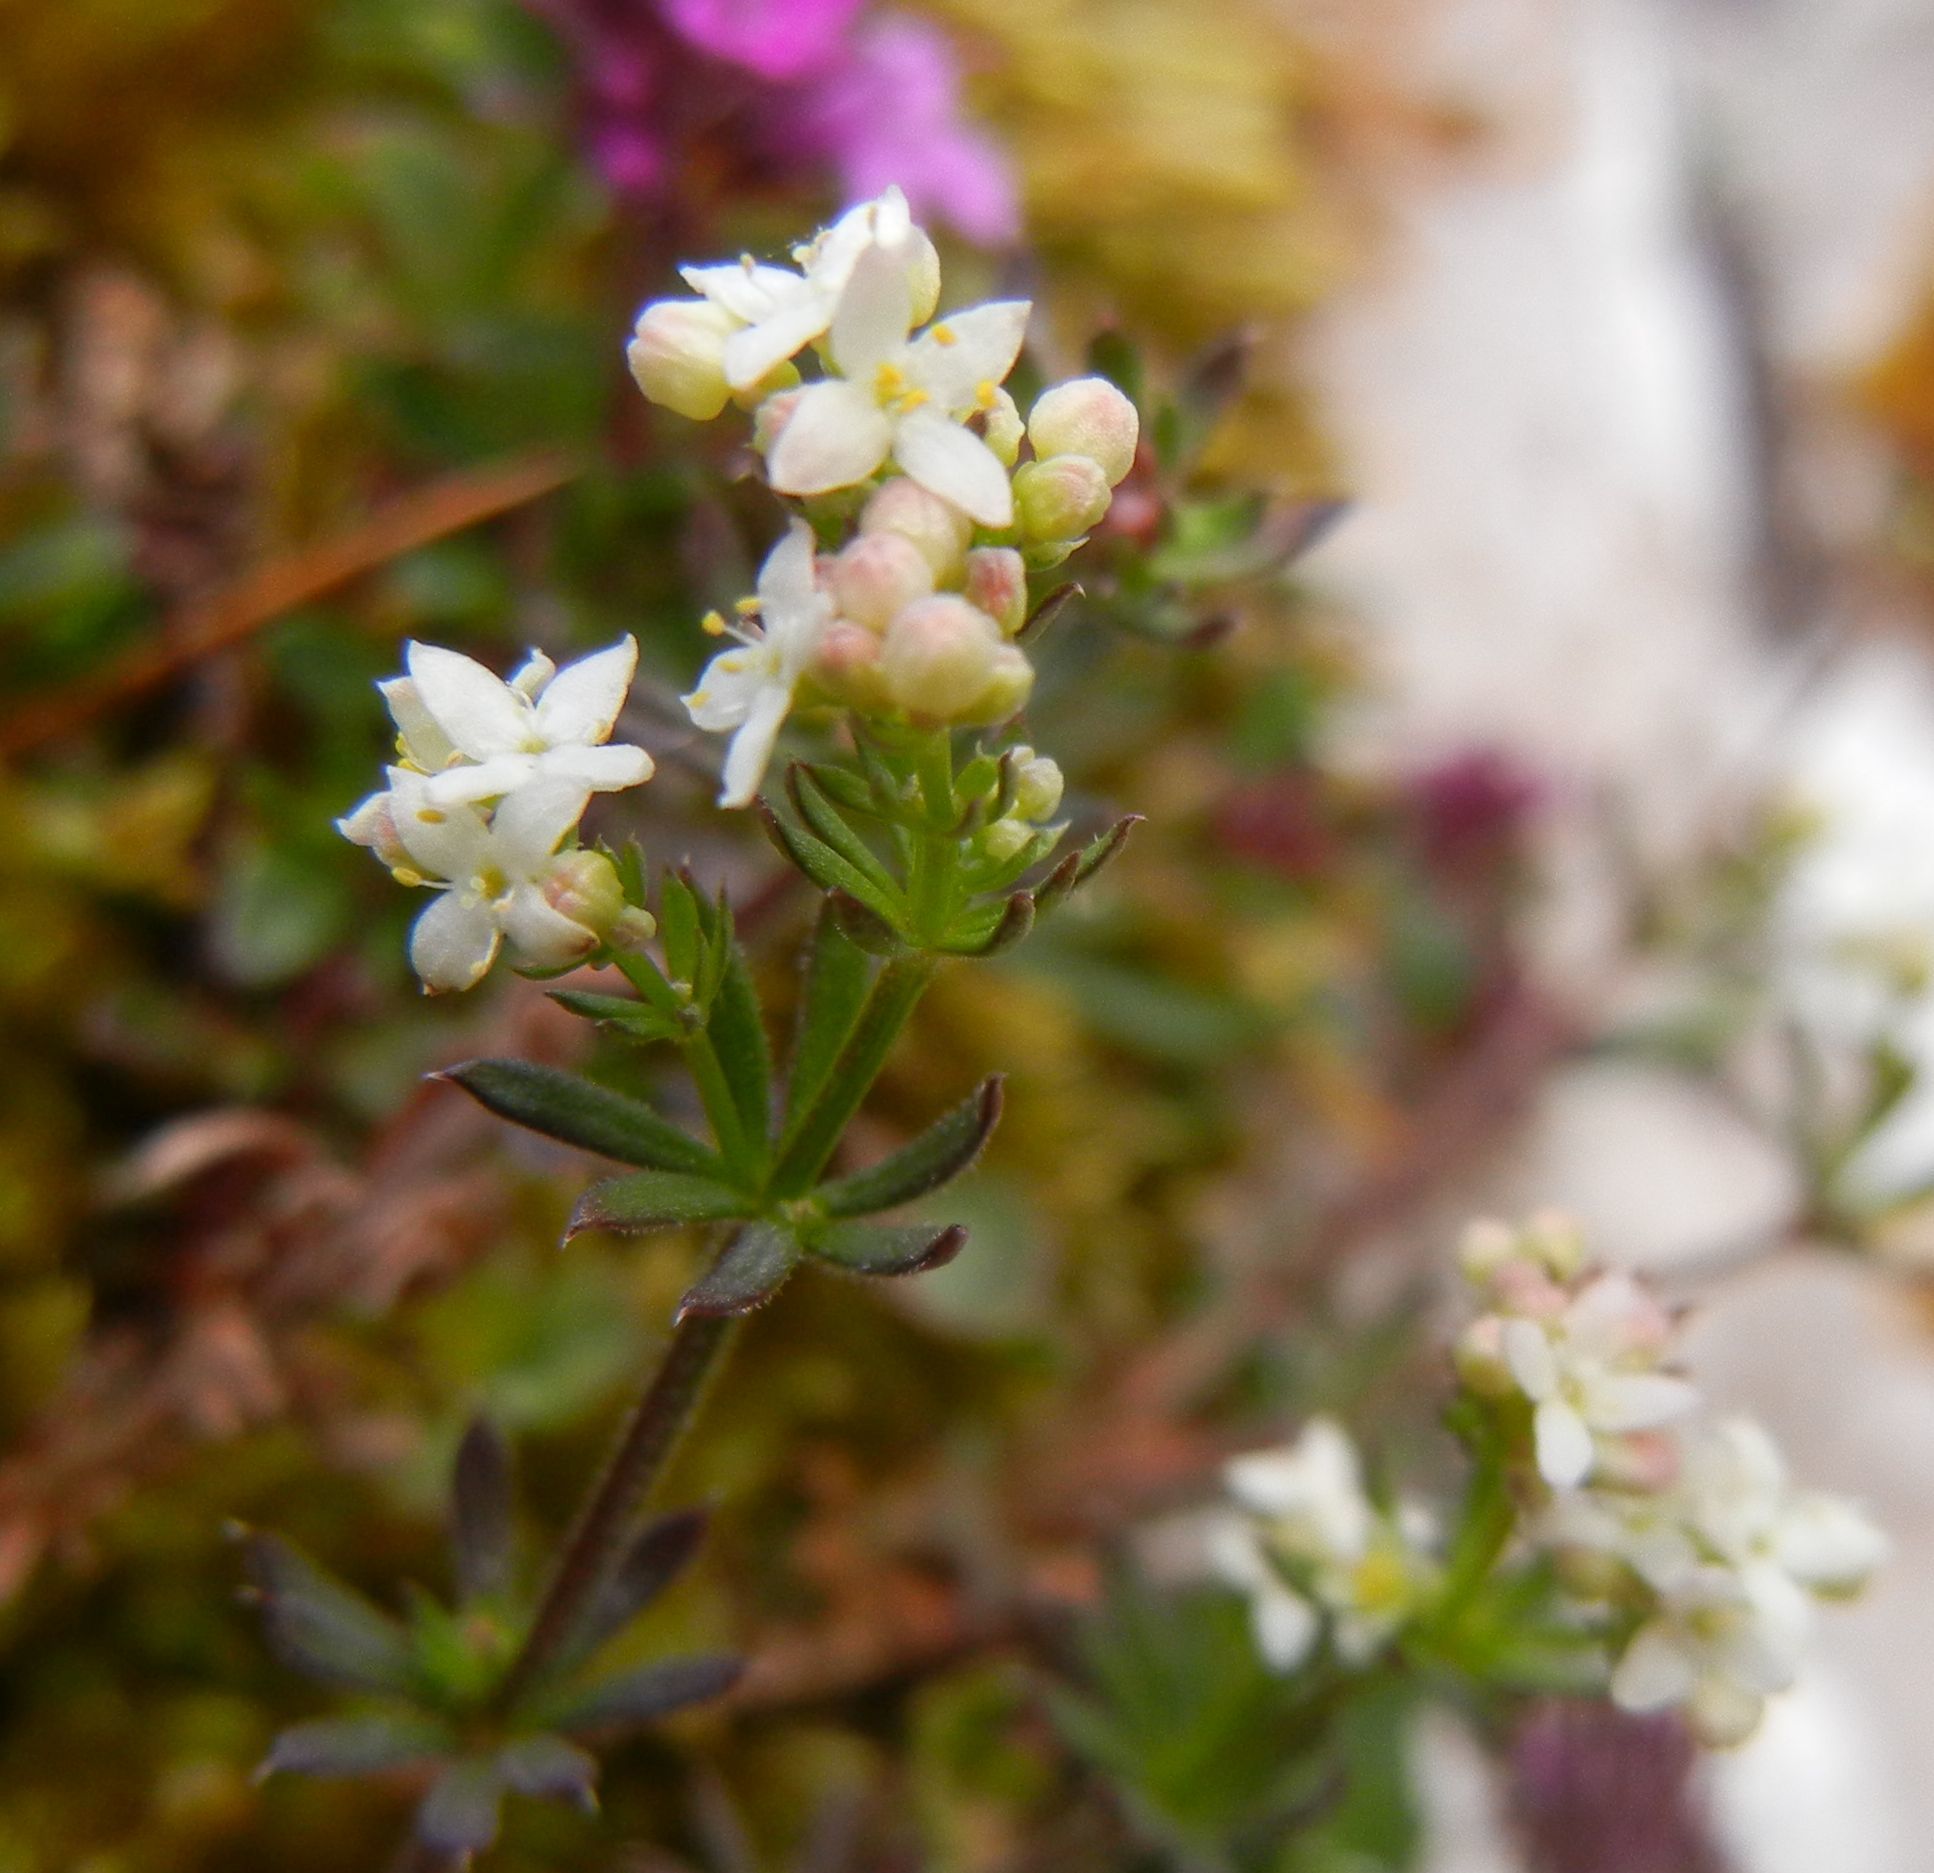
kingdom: Plantae
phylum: Tracheophyta
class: Magnoliopsida
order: Gentianales
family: Rubiaceae
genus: Galium
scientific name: Galium sterneri
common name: Limestone bedstraw
